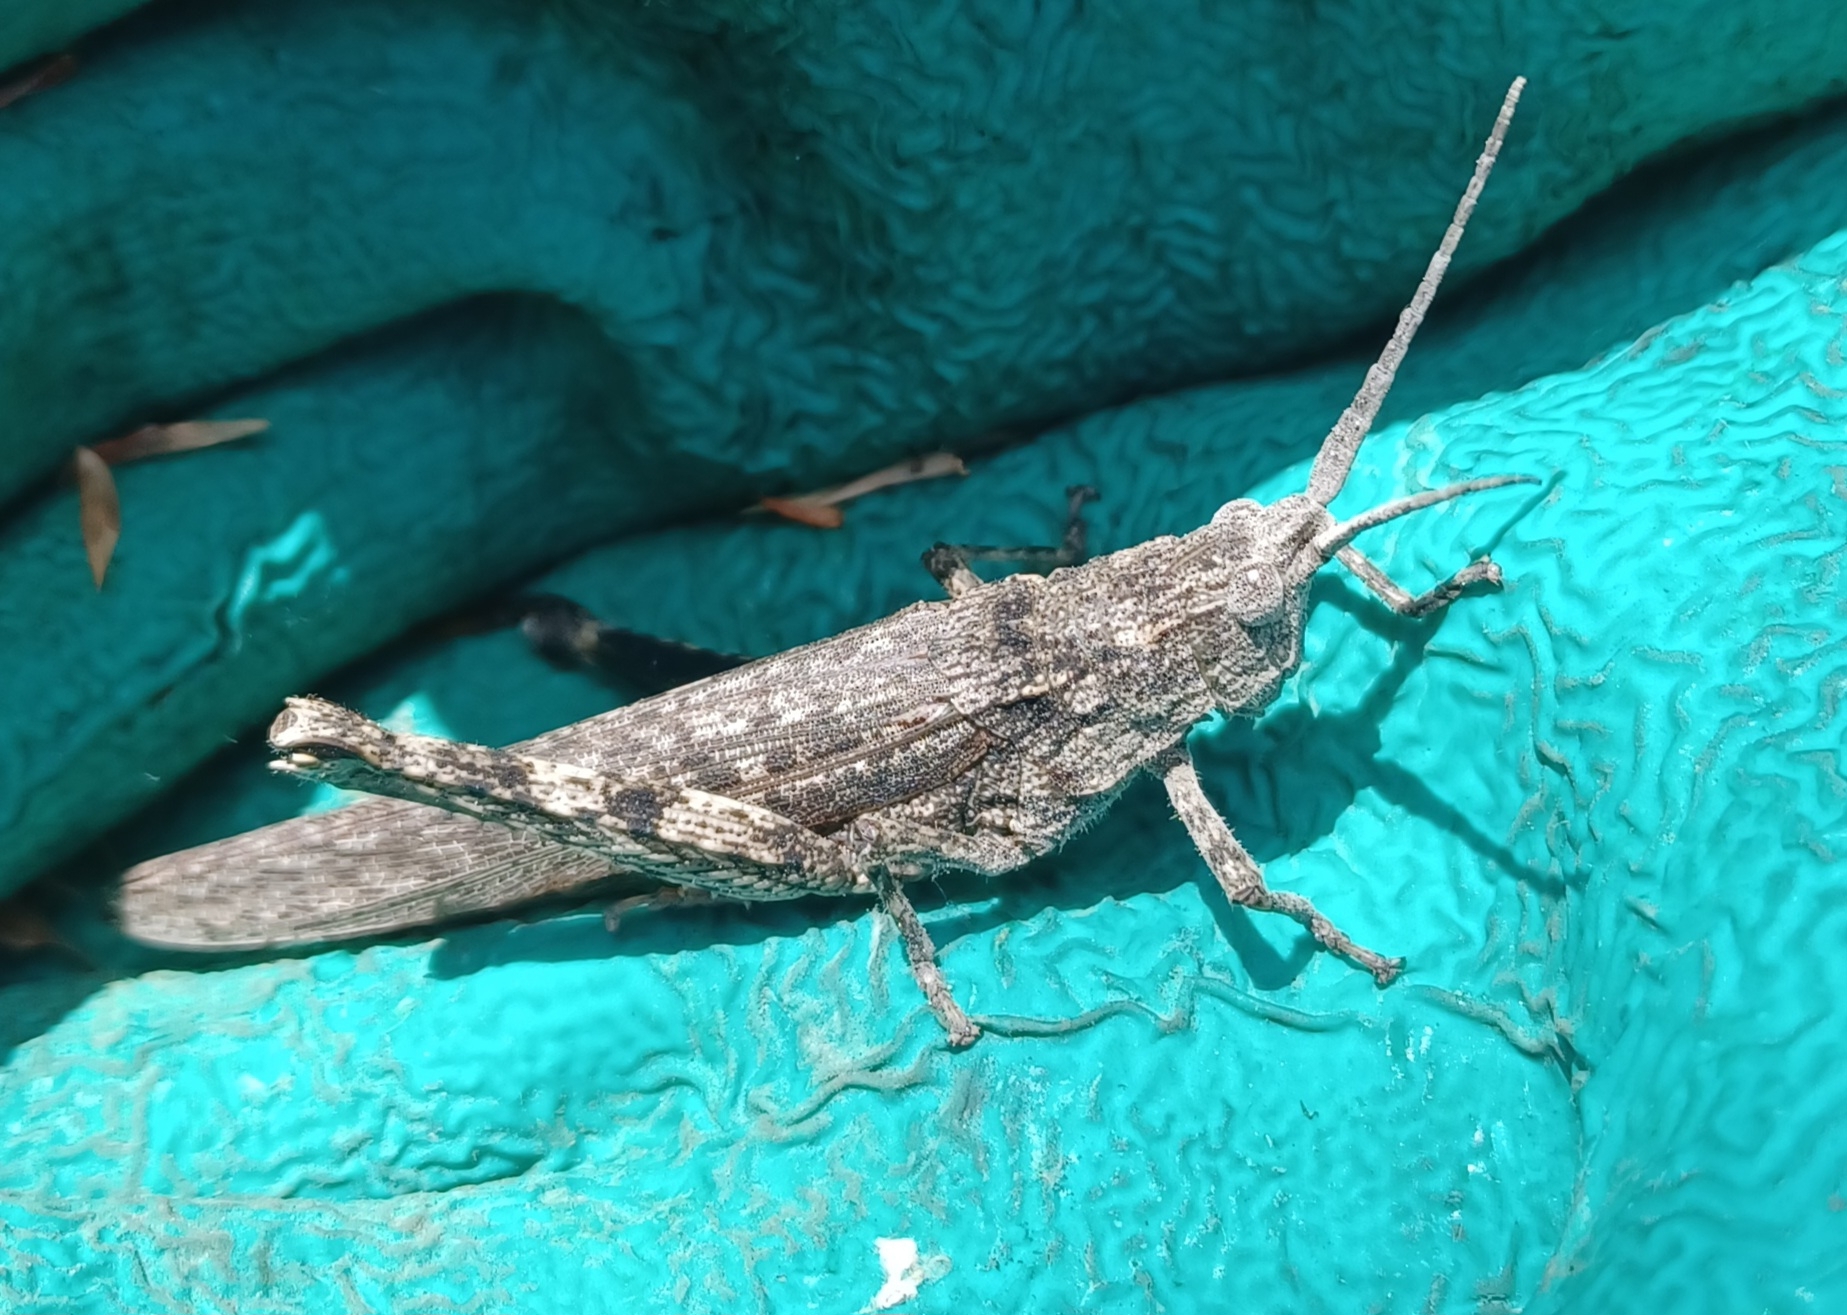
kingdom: Animalia
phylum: Arthropoda
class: Insecta
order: Orthoptera
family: Acrididae
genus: Coryphistes
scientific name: Coryphistes ruricola
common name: Bark-mimicking grasshopper
